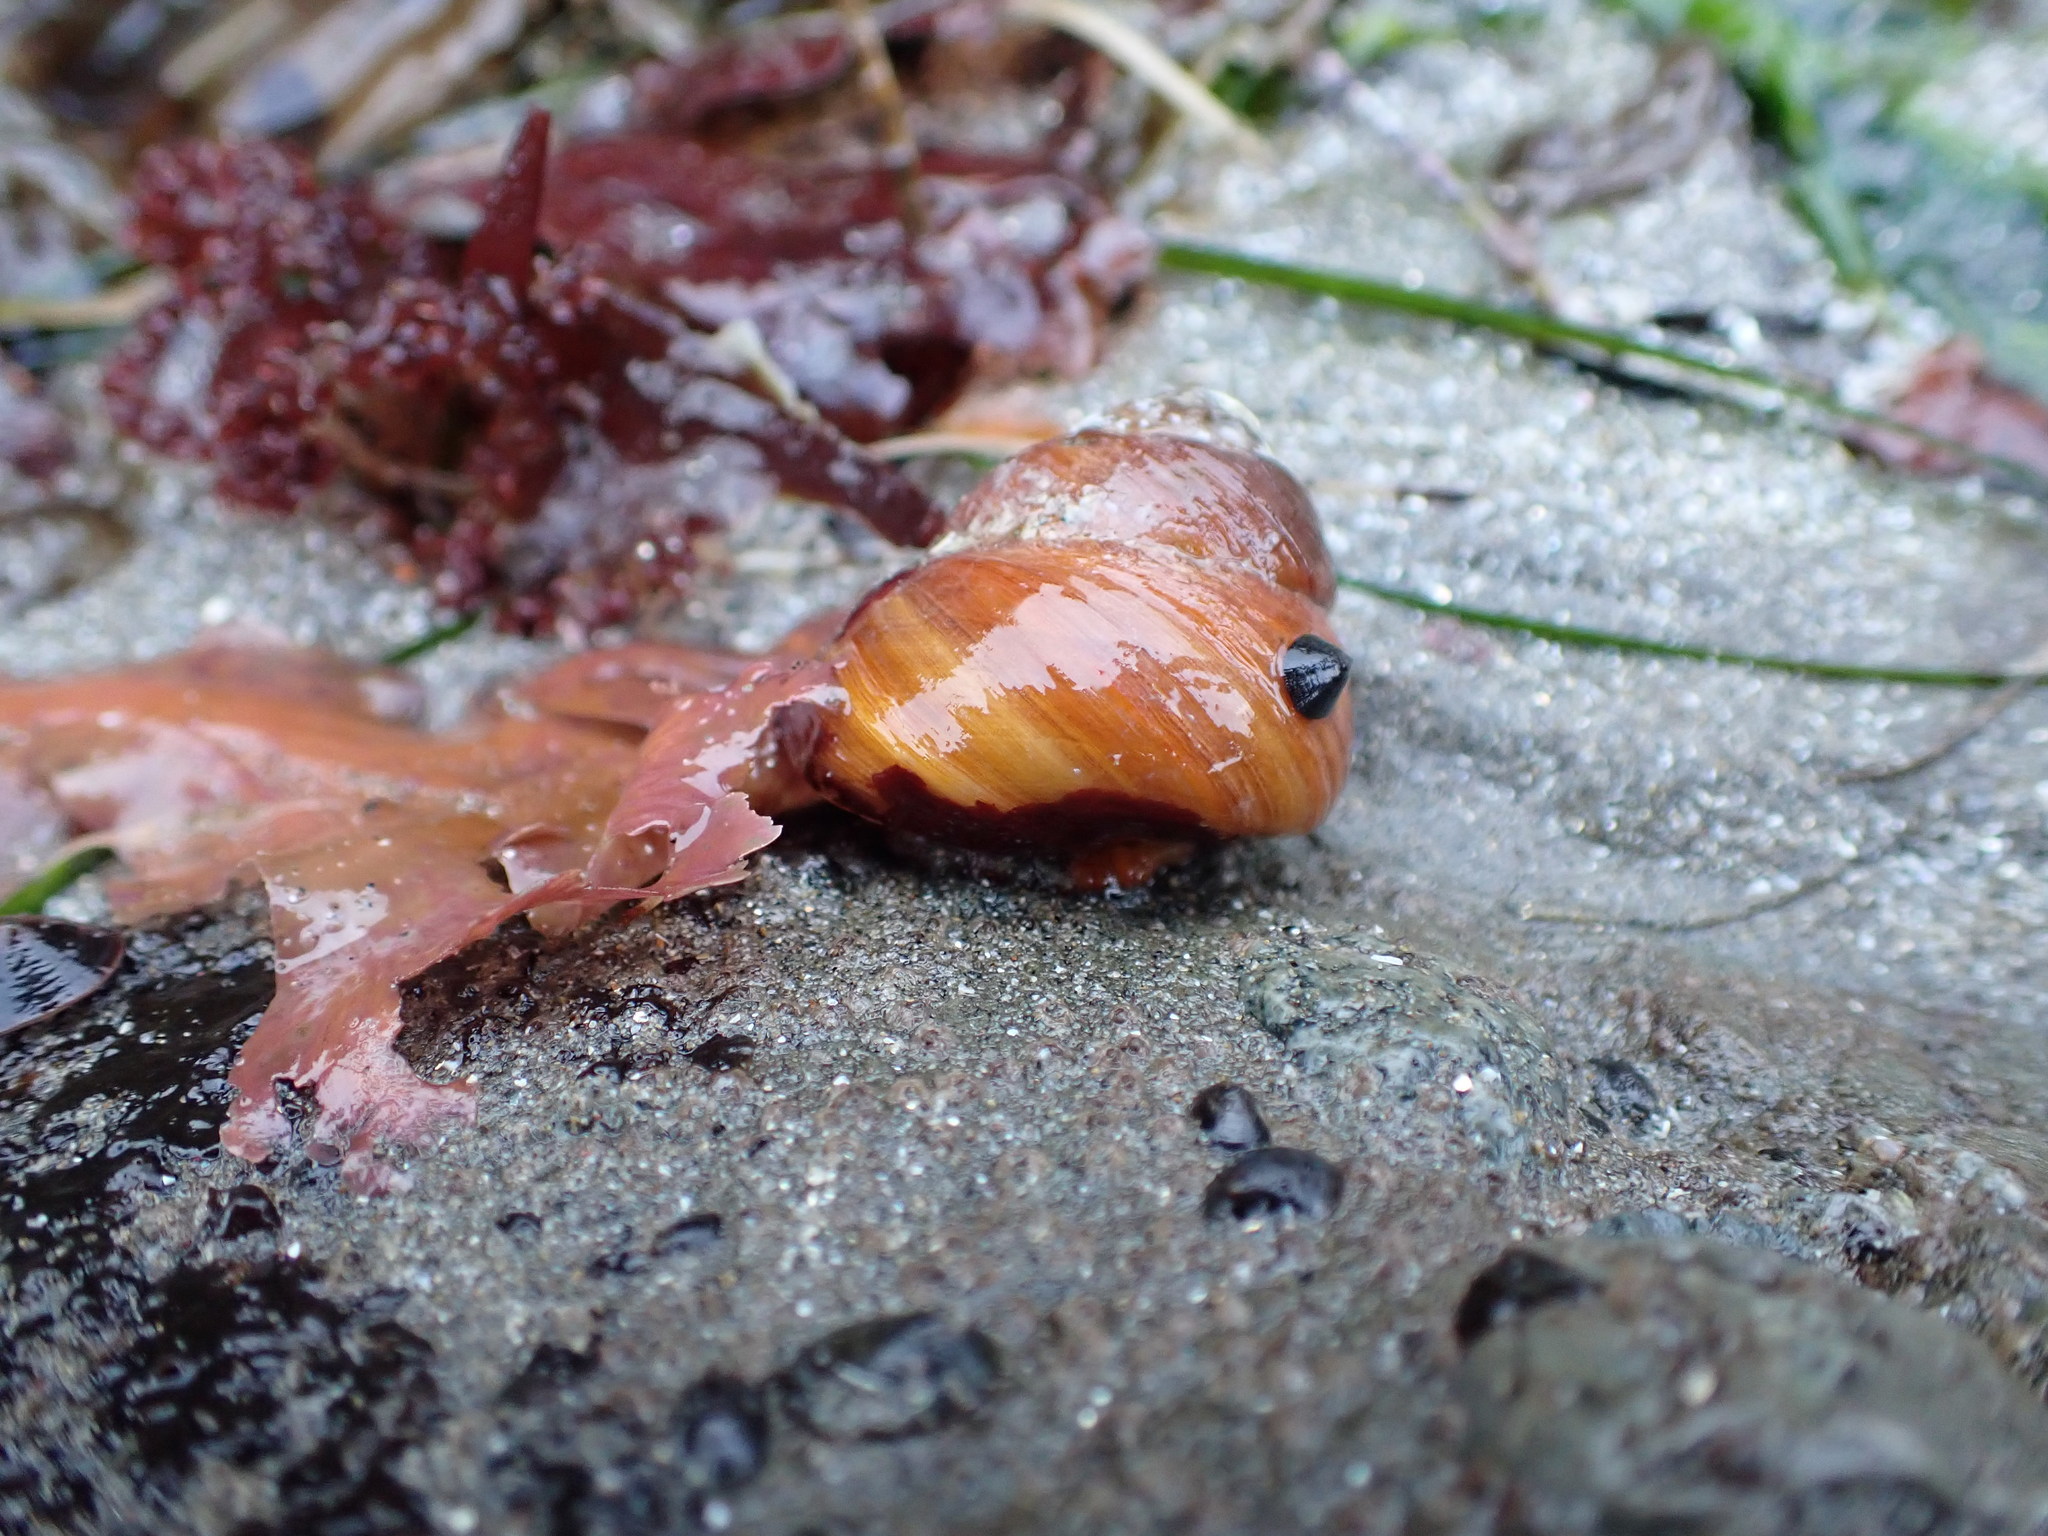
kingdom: Animalia
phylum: Mollusca
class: Gastropoda
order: Trochida
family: Tegulidae
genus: Tegula
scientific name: Tegula brunnea
